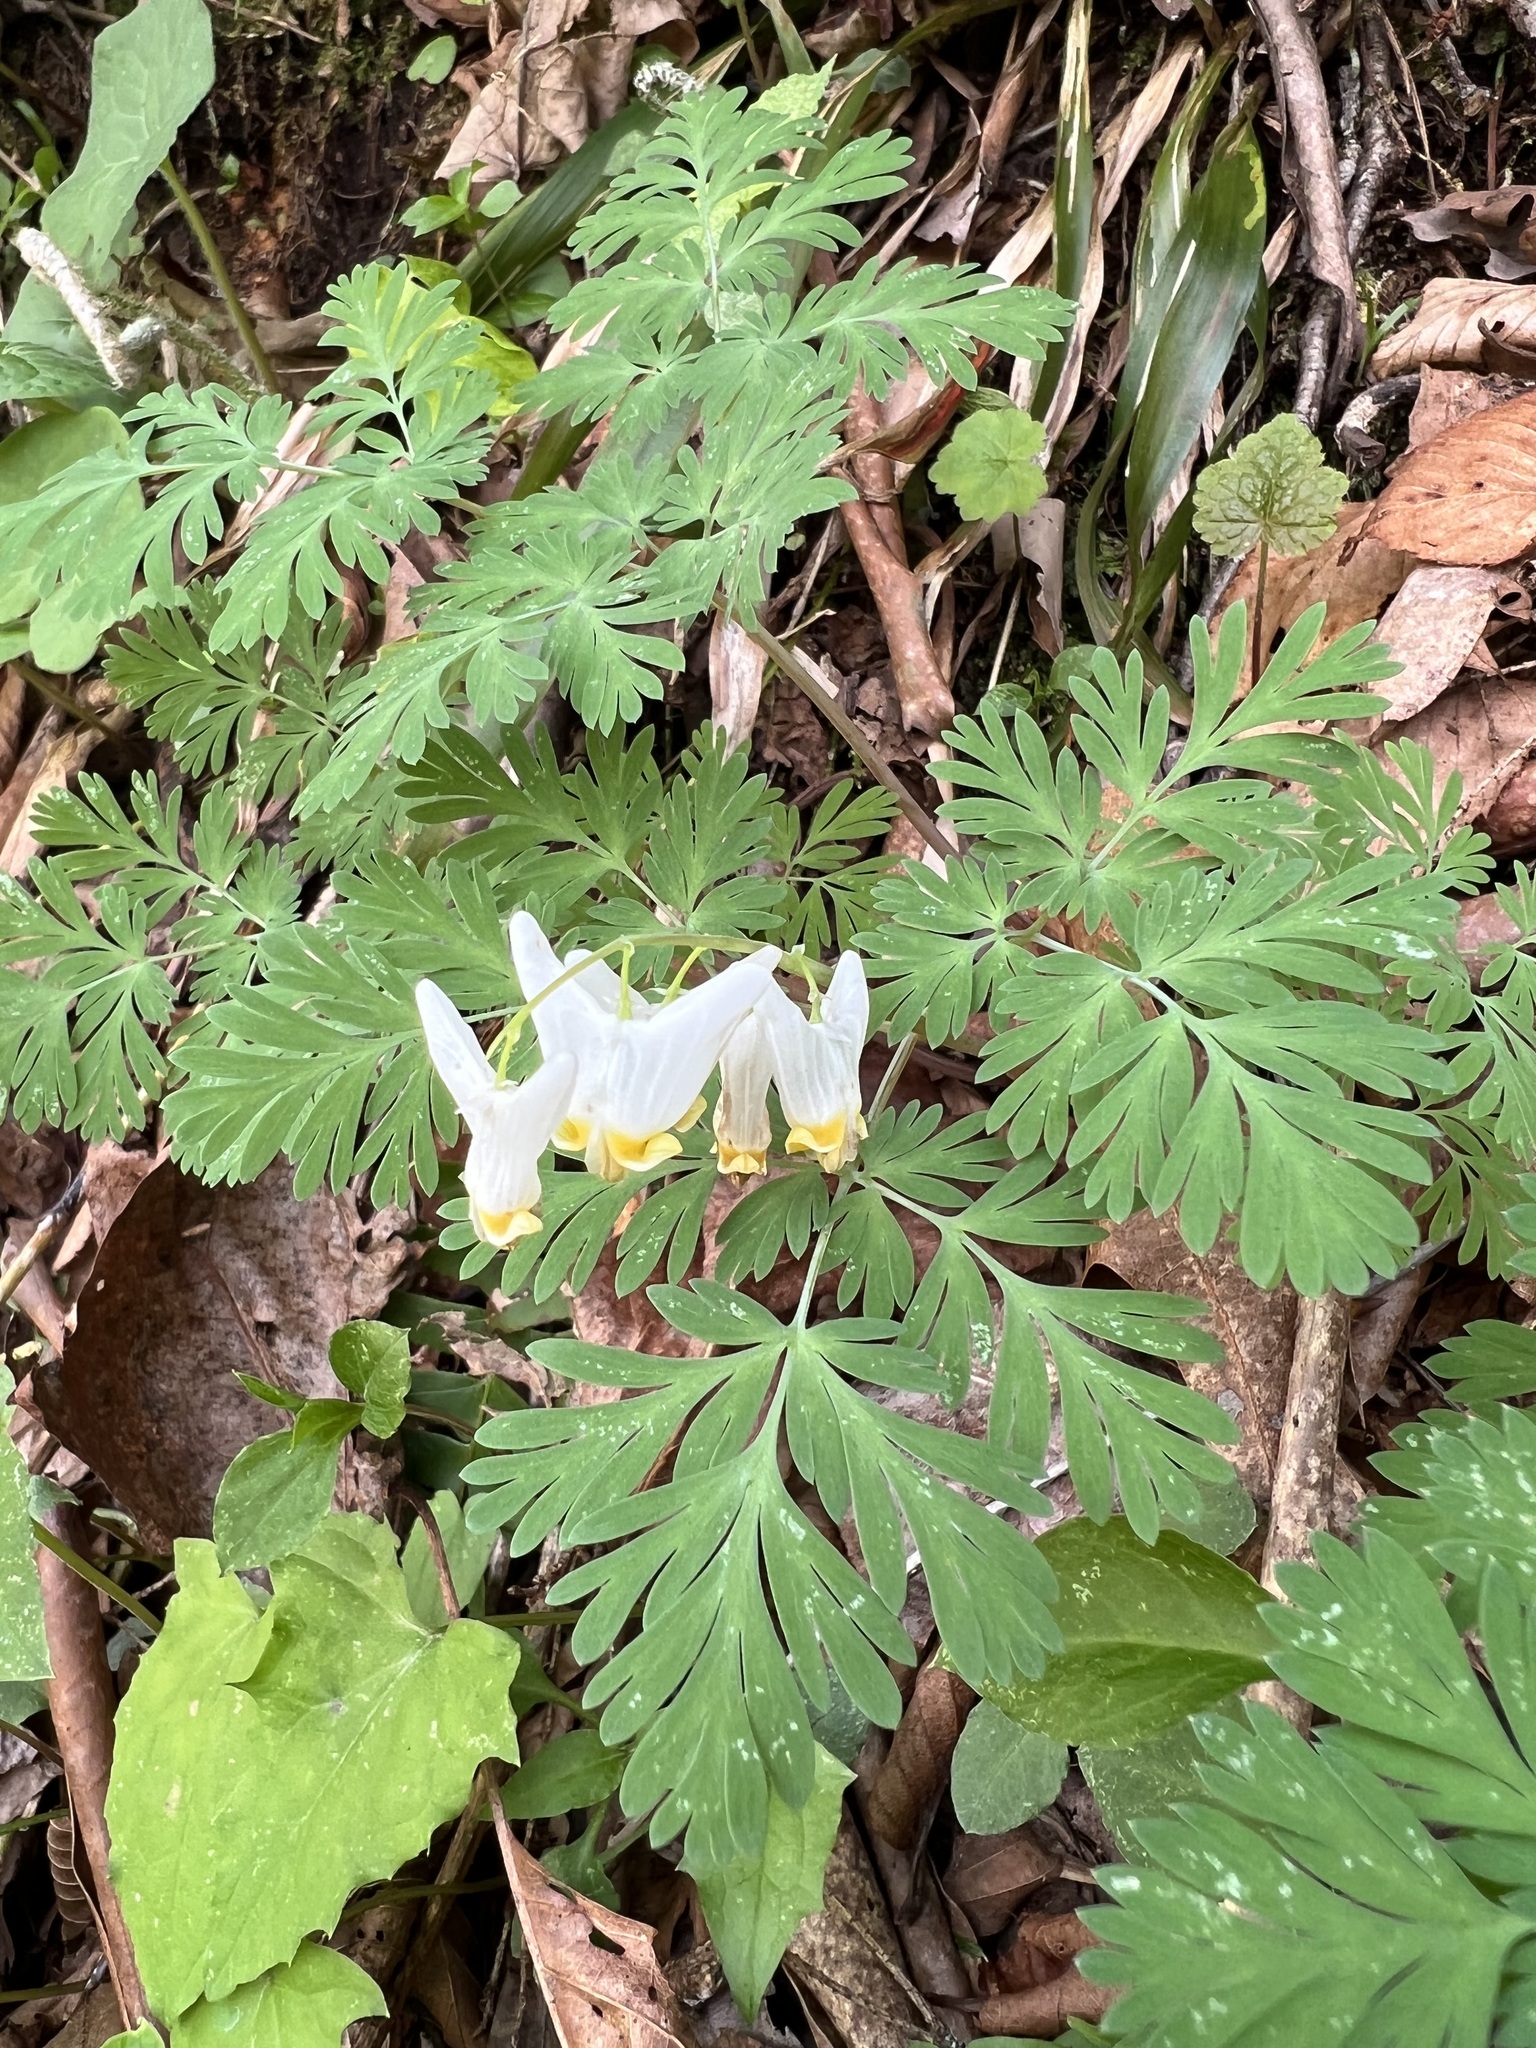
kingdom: Plantae
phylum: Tracheophyta
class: Magnoliopsida
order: Ranunculales
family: Papaveraceae
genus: Dicentra
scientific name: Dicentra cucullaria
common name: Dutchman's breeches
